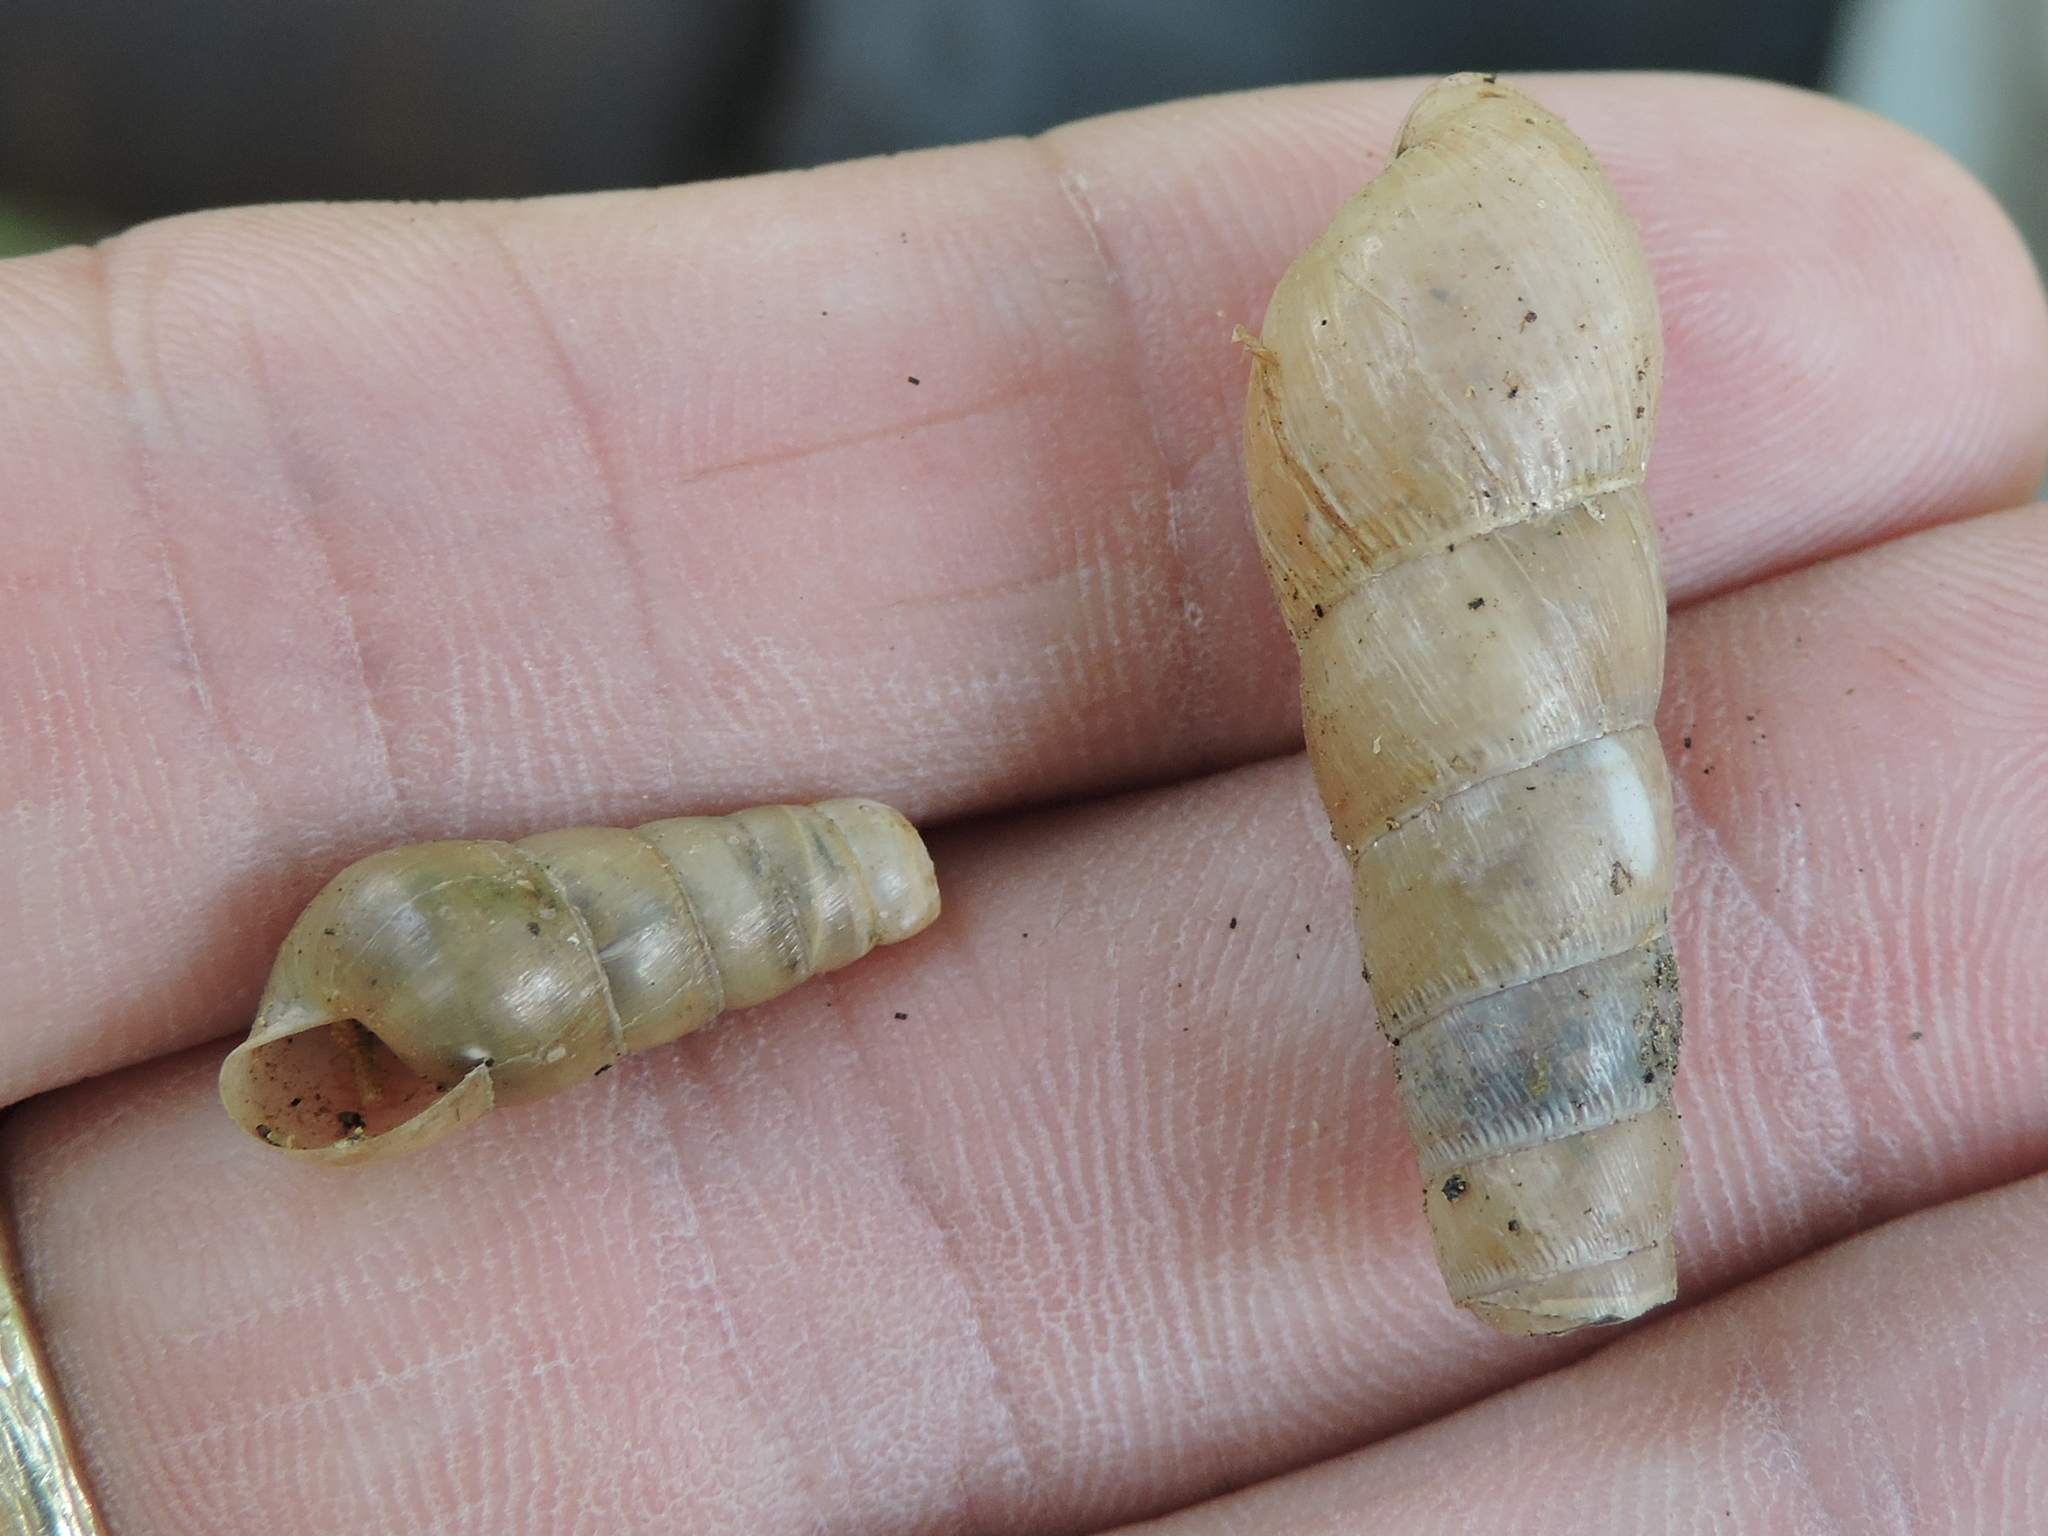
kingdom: Animalia
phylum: Mollusca
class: Gastropoda
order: Stylommatophora
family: Achatinidae
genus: Rumina
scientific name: Rumina decollata
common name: Decollate snail
